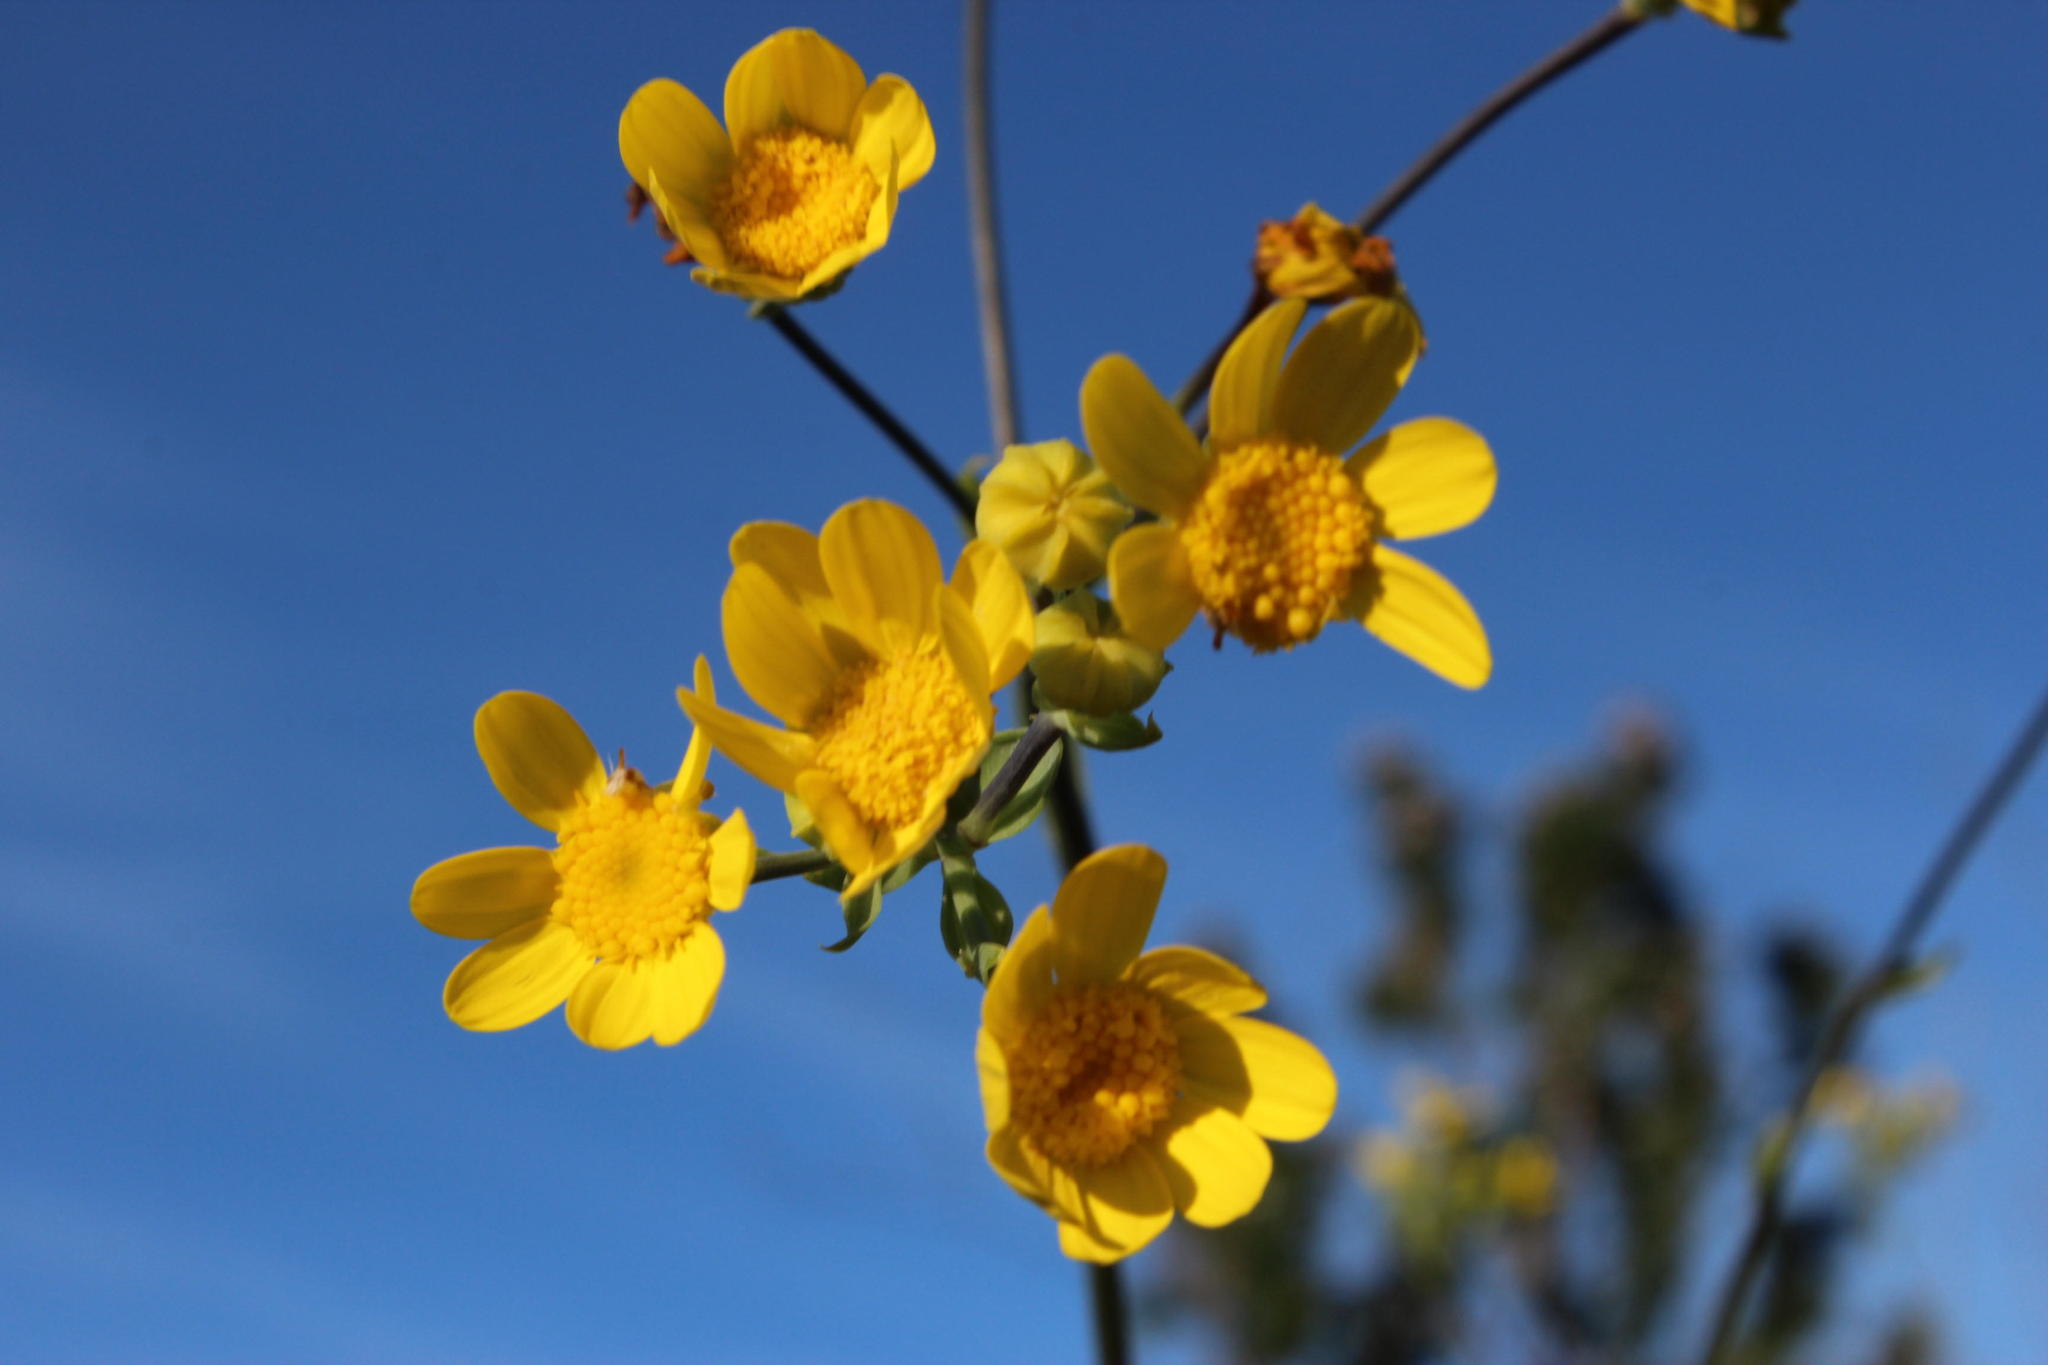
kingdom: Plantae
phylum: Tracheophyta
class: Magnoliopsida
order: Asterales
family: Asteraceae
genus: Othonna
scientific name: Othonna quinquedentata
